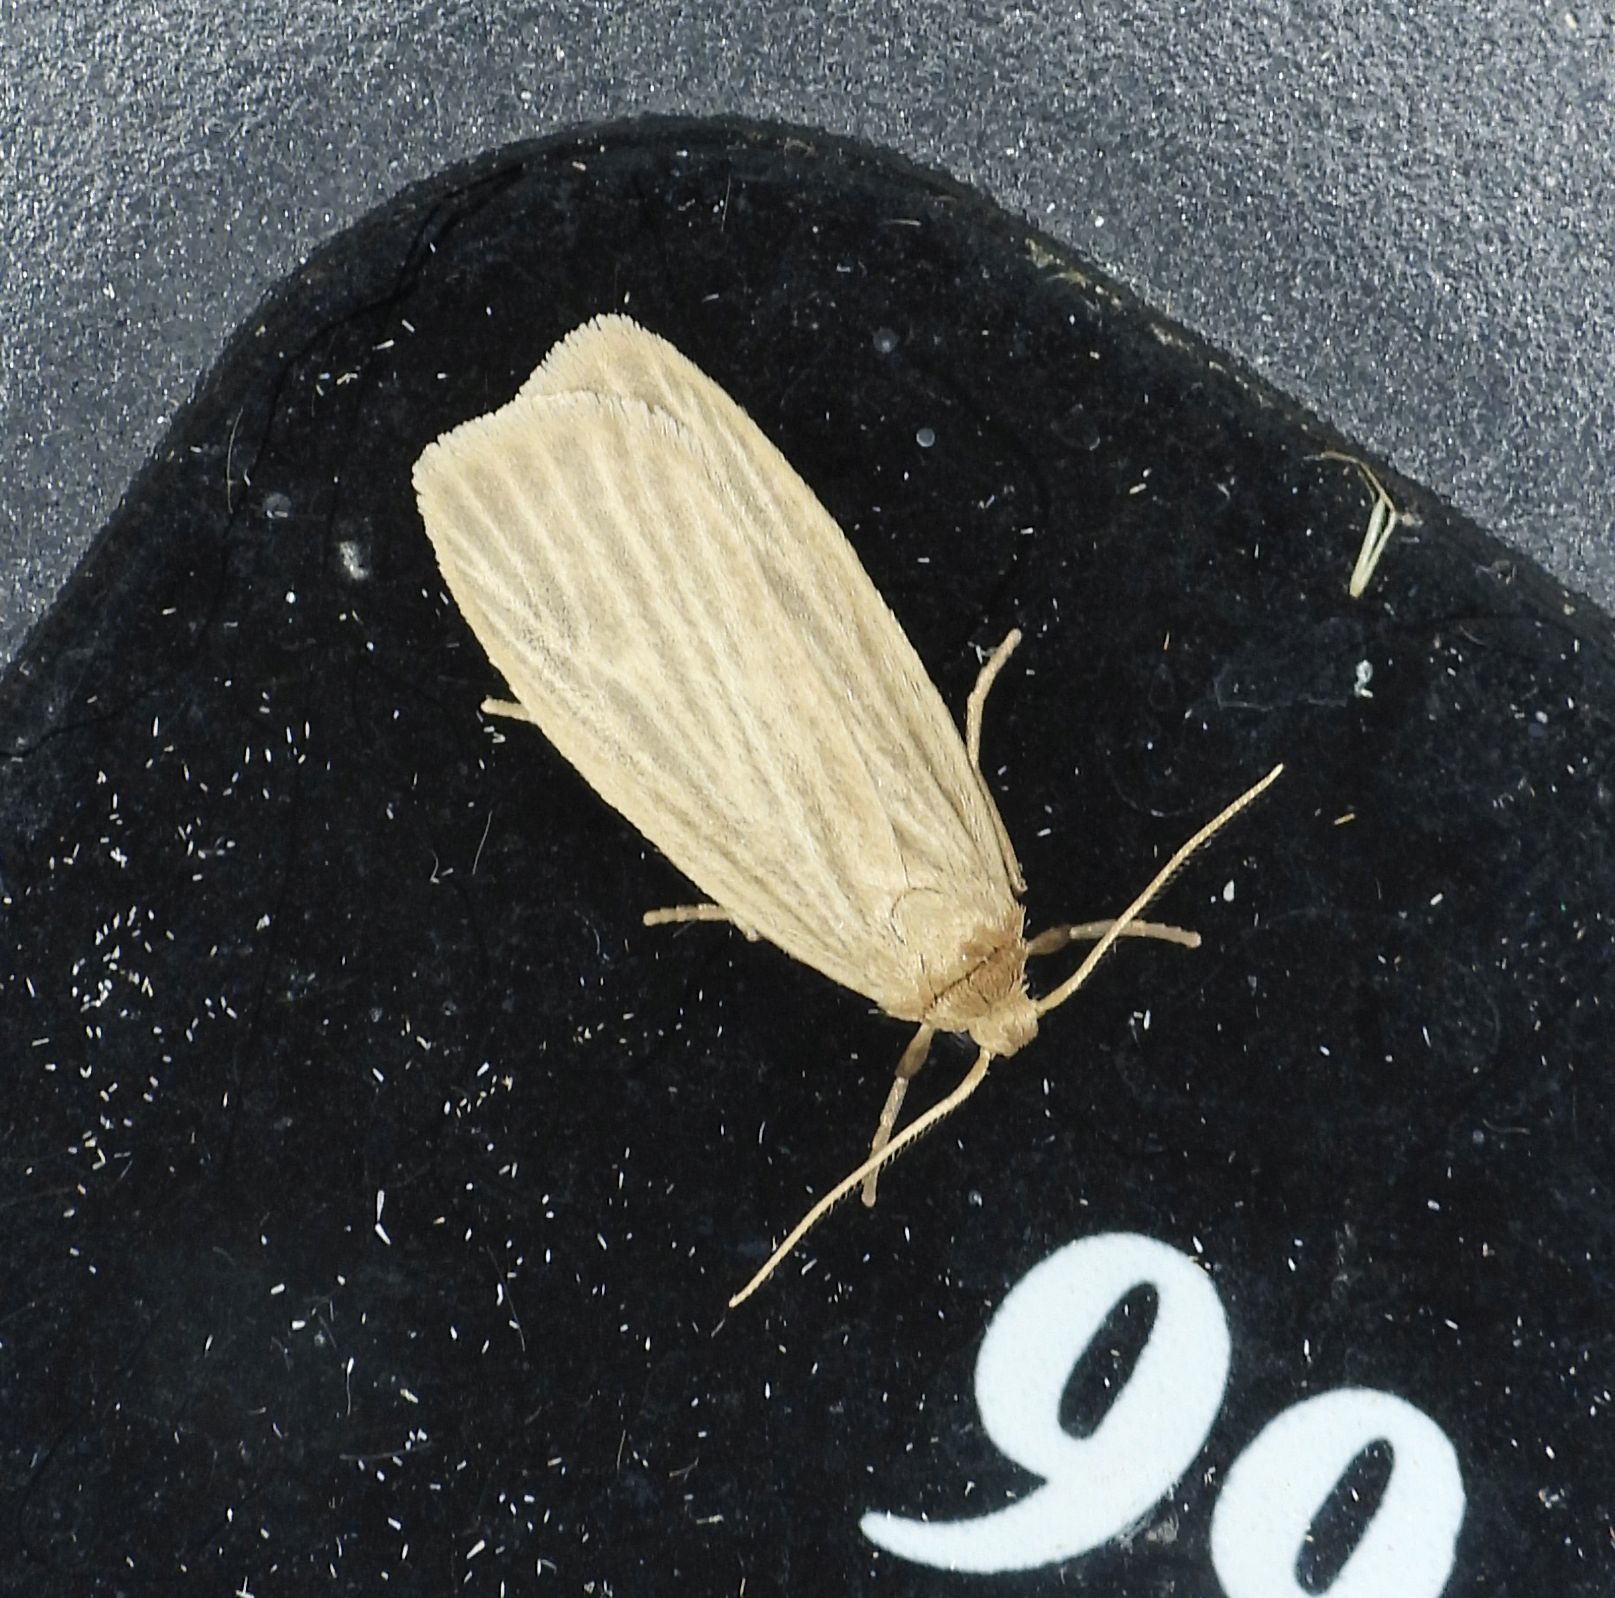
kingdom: Animalia
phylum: Arthropoda
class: Insecta
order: Lepidoptera
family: Erebidae
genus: Crambidia
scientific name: Crambidia pallida
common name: Pale lichen moth
